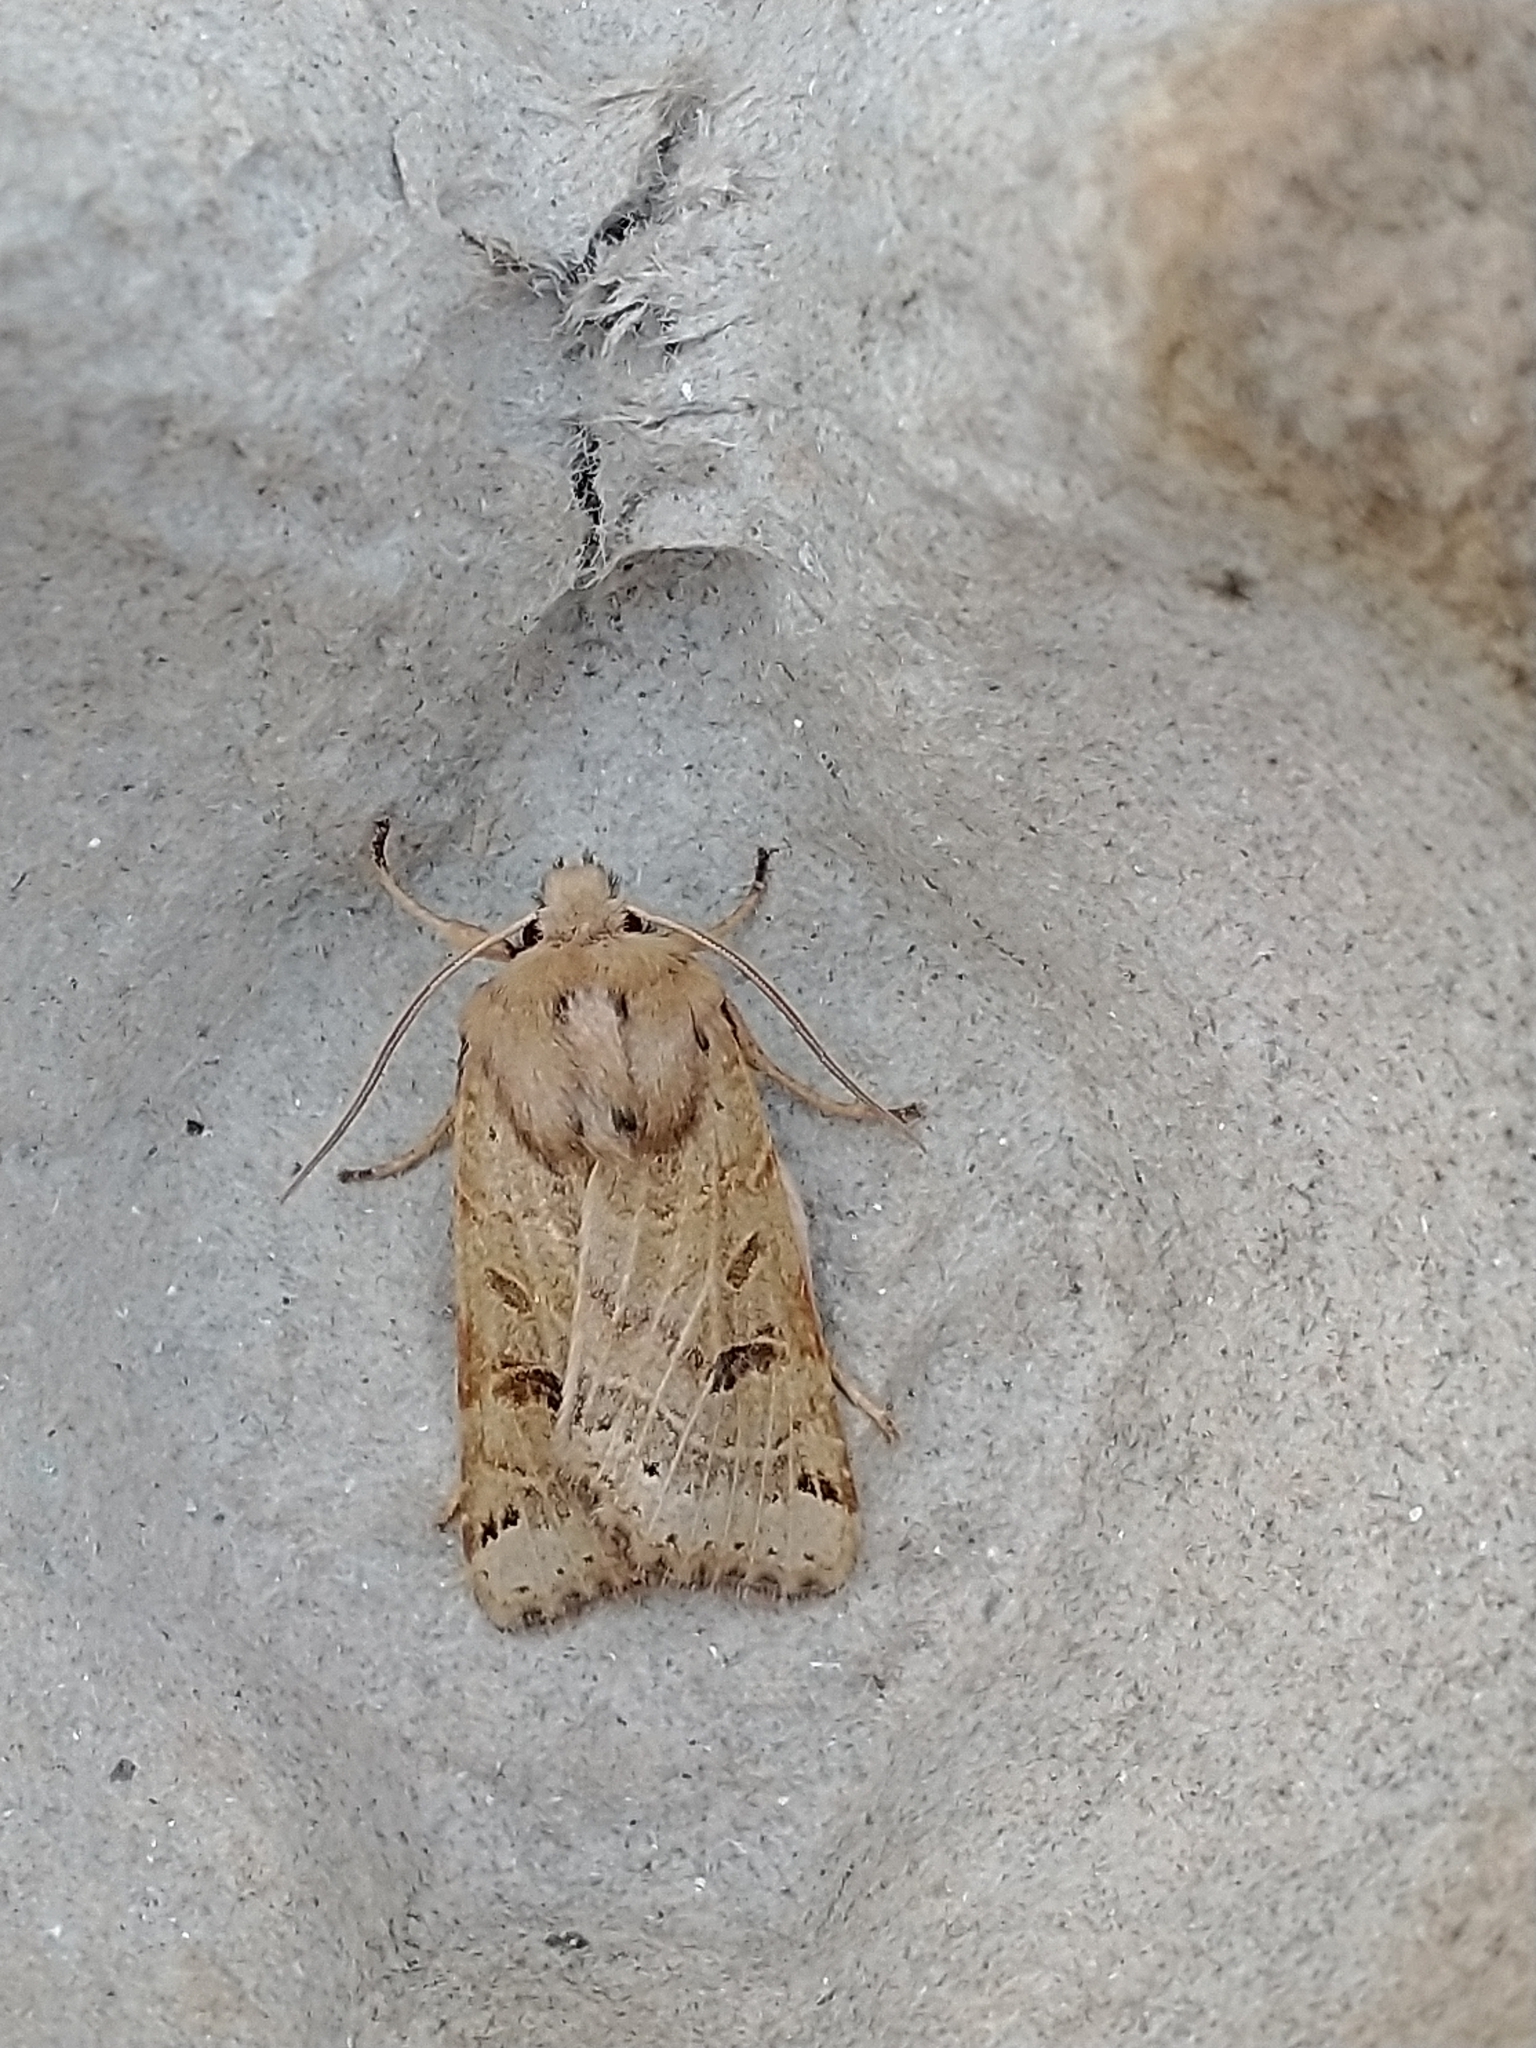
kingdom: Animalia
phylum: Arthropoda
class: Insecta
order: Lepidoptera
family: Noctuidae
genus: Agrochola
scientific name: Agrochola lunosa
